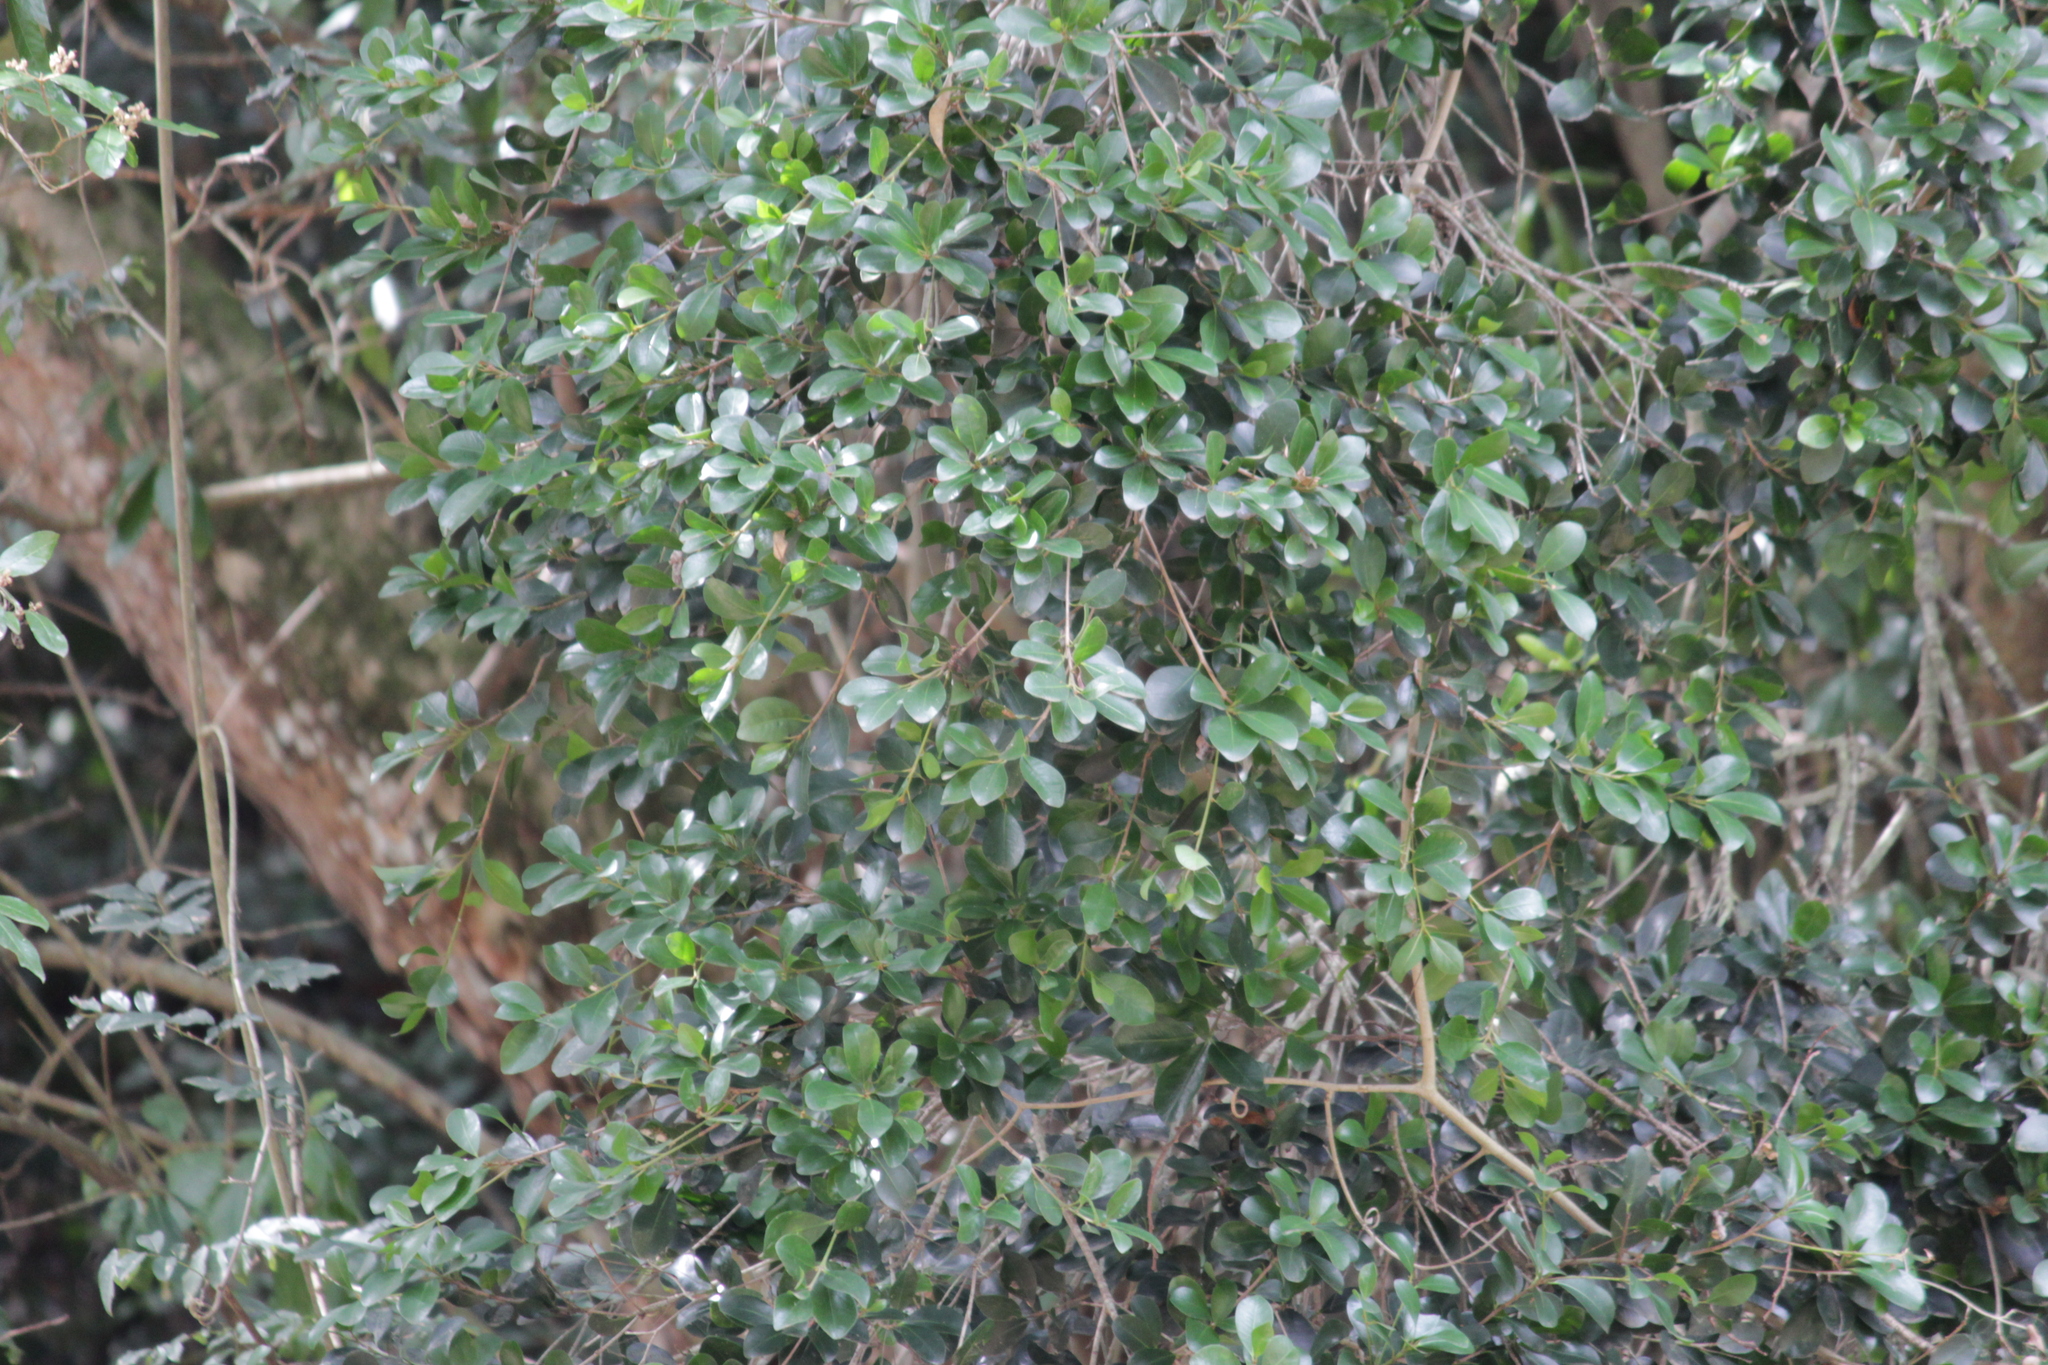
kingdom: Plantae
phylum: Tracheophyta
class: Magnoliopsida
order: Ericales
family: Sapotaceae
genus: Mimusops
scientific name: Mimusops obovata
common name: Red milkwood
